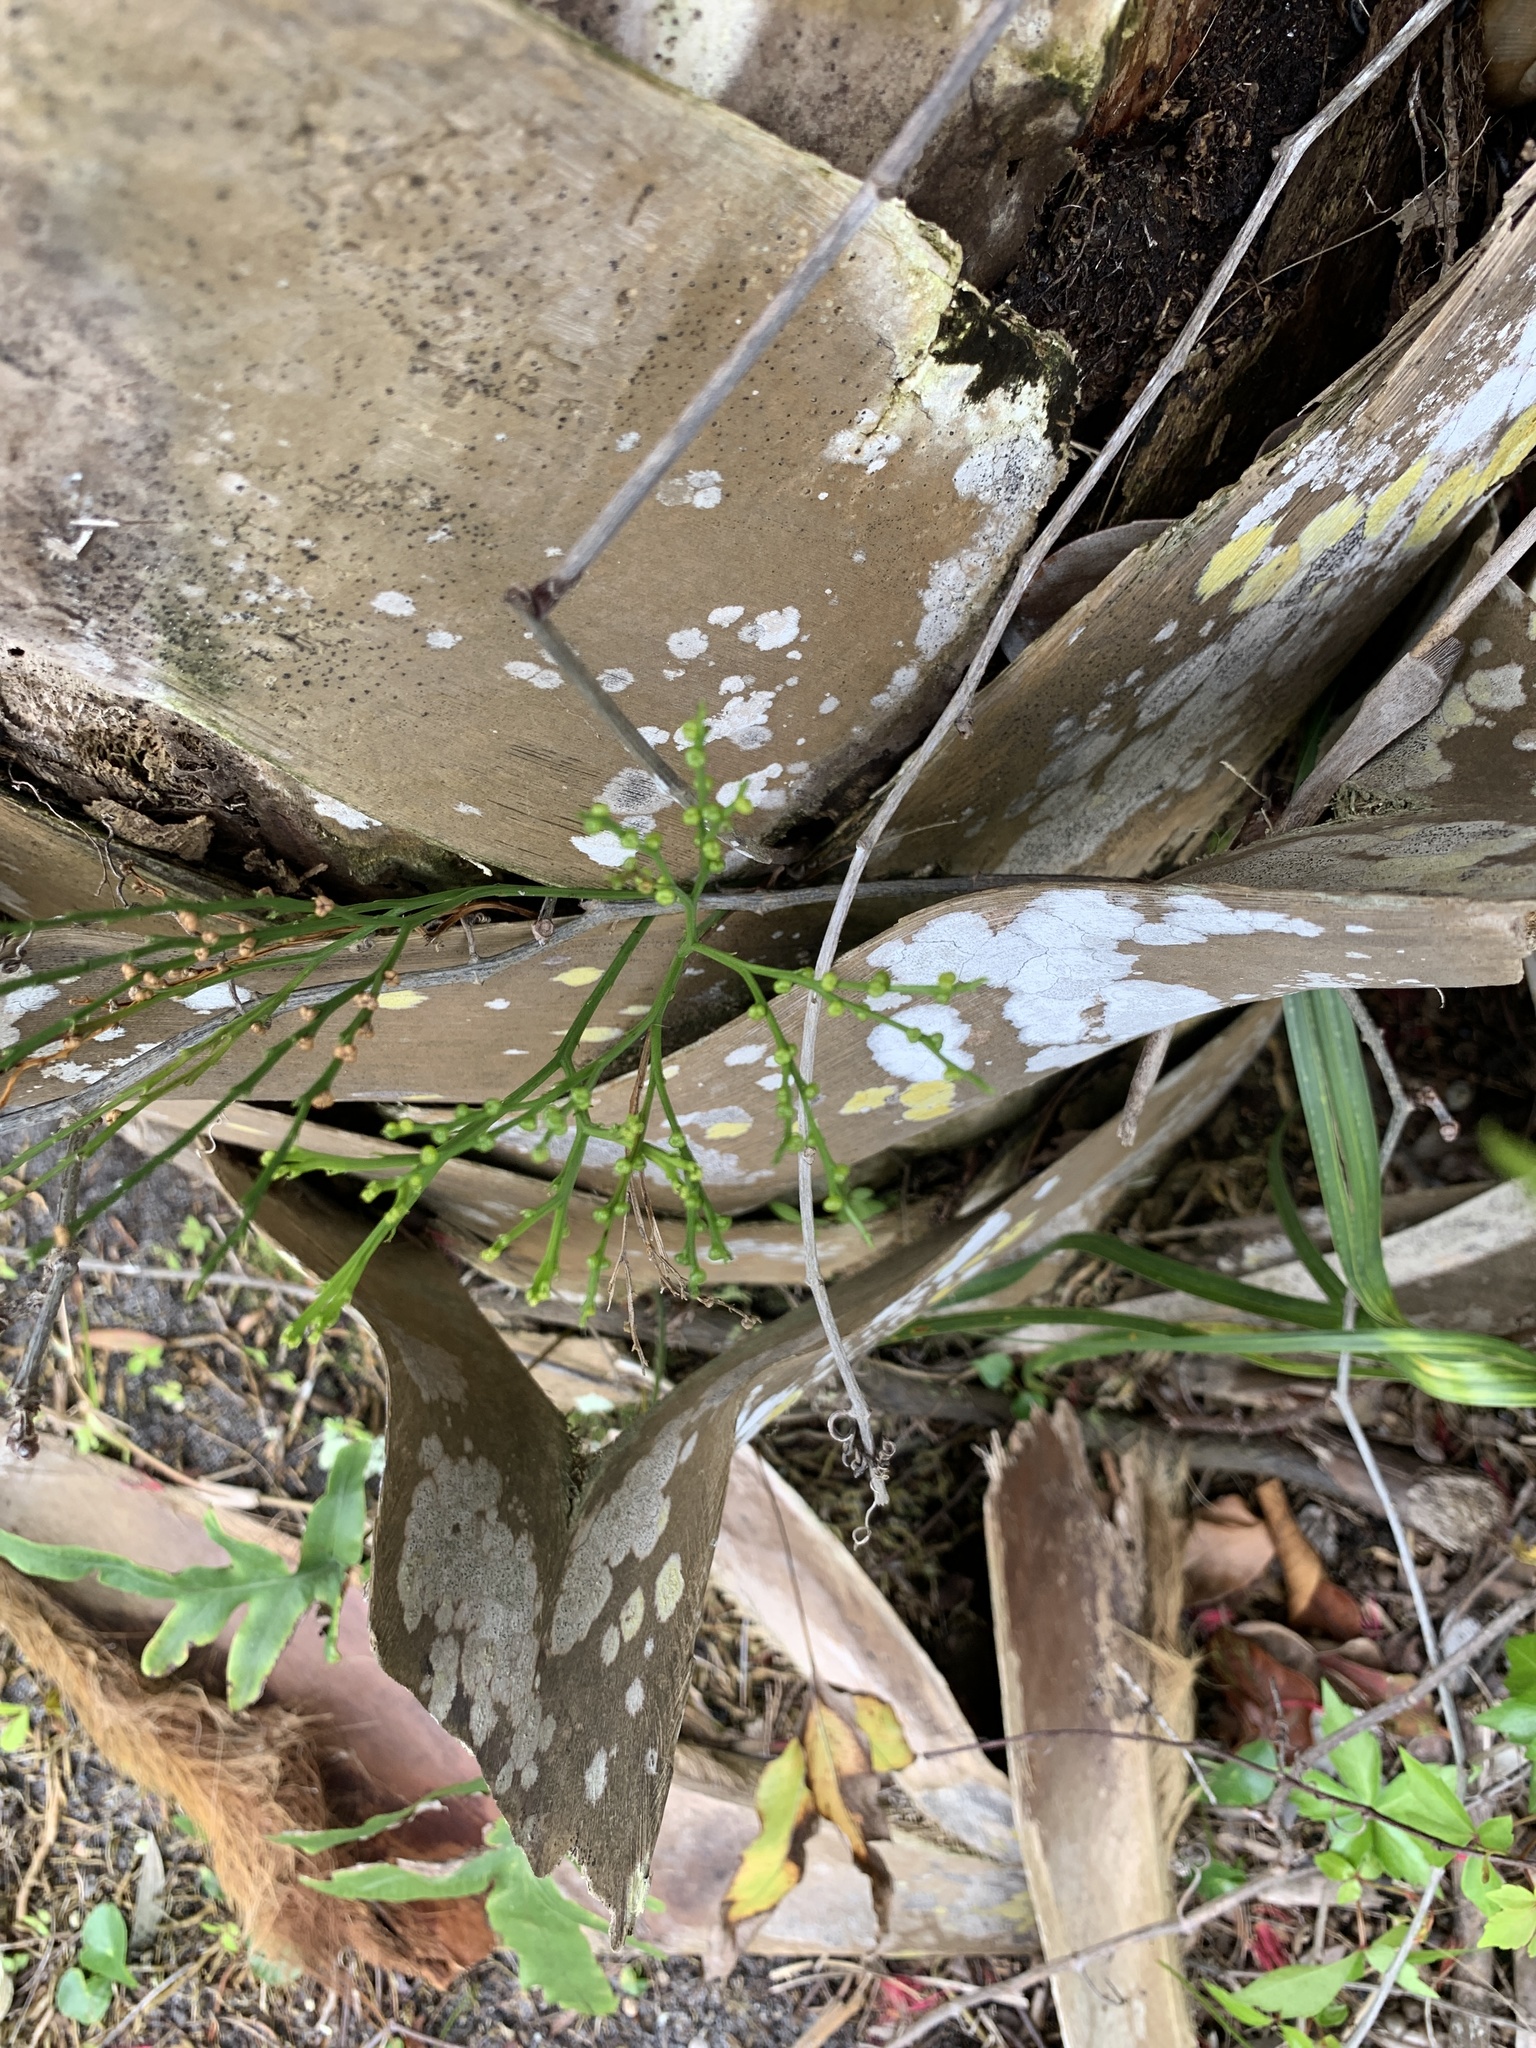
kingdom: Plantae
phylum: Tracheophyta
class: Polypodiopsida
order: Psilotales
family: Psilotaceae
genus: Psilotum
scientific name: Psilotum nudum
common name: Skeleton fork fern
